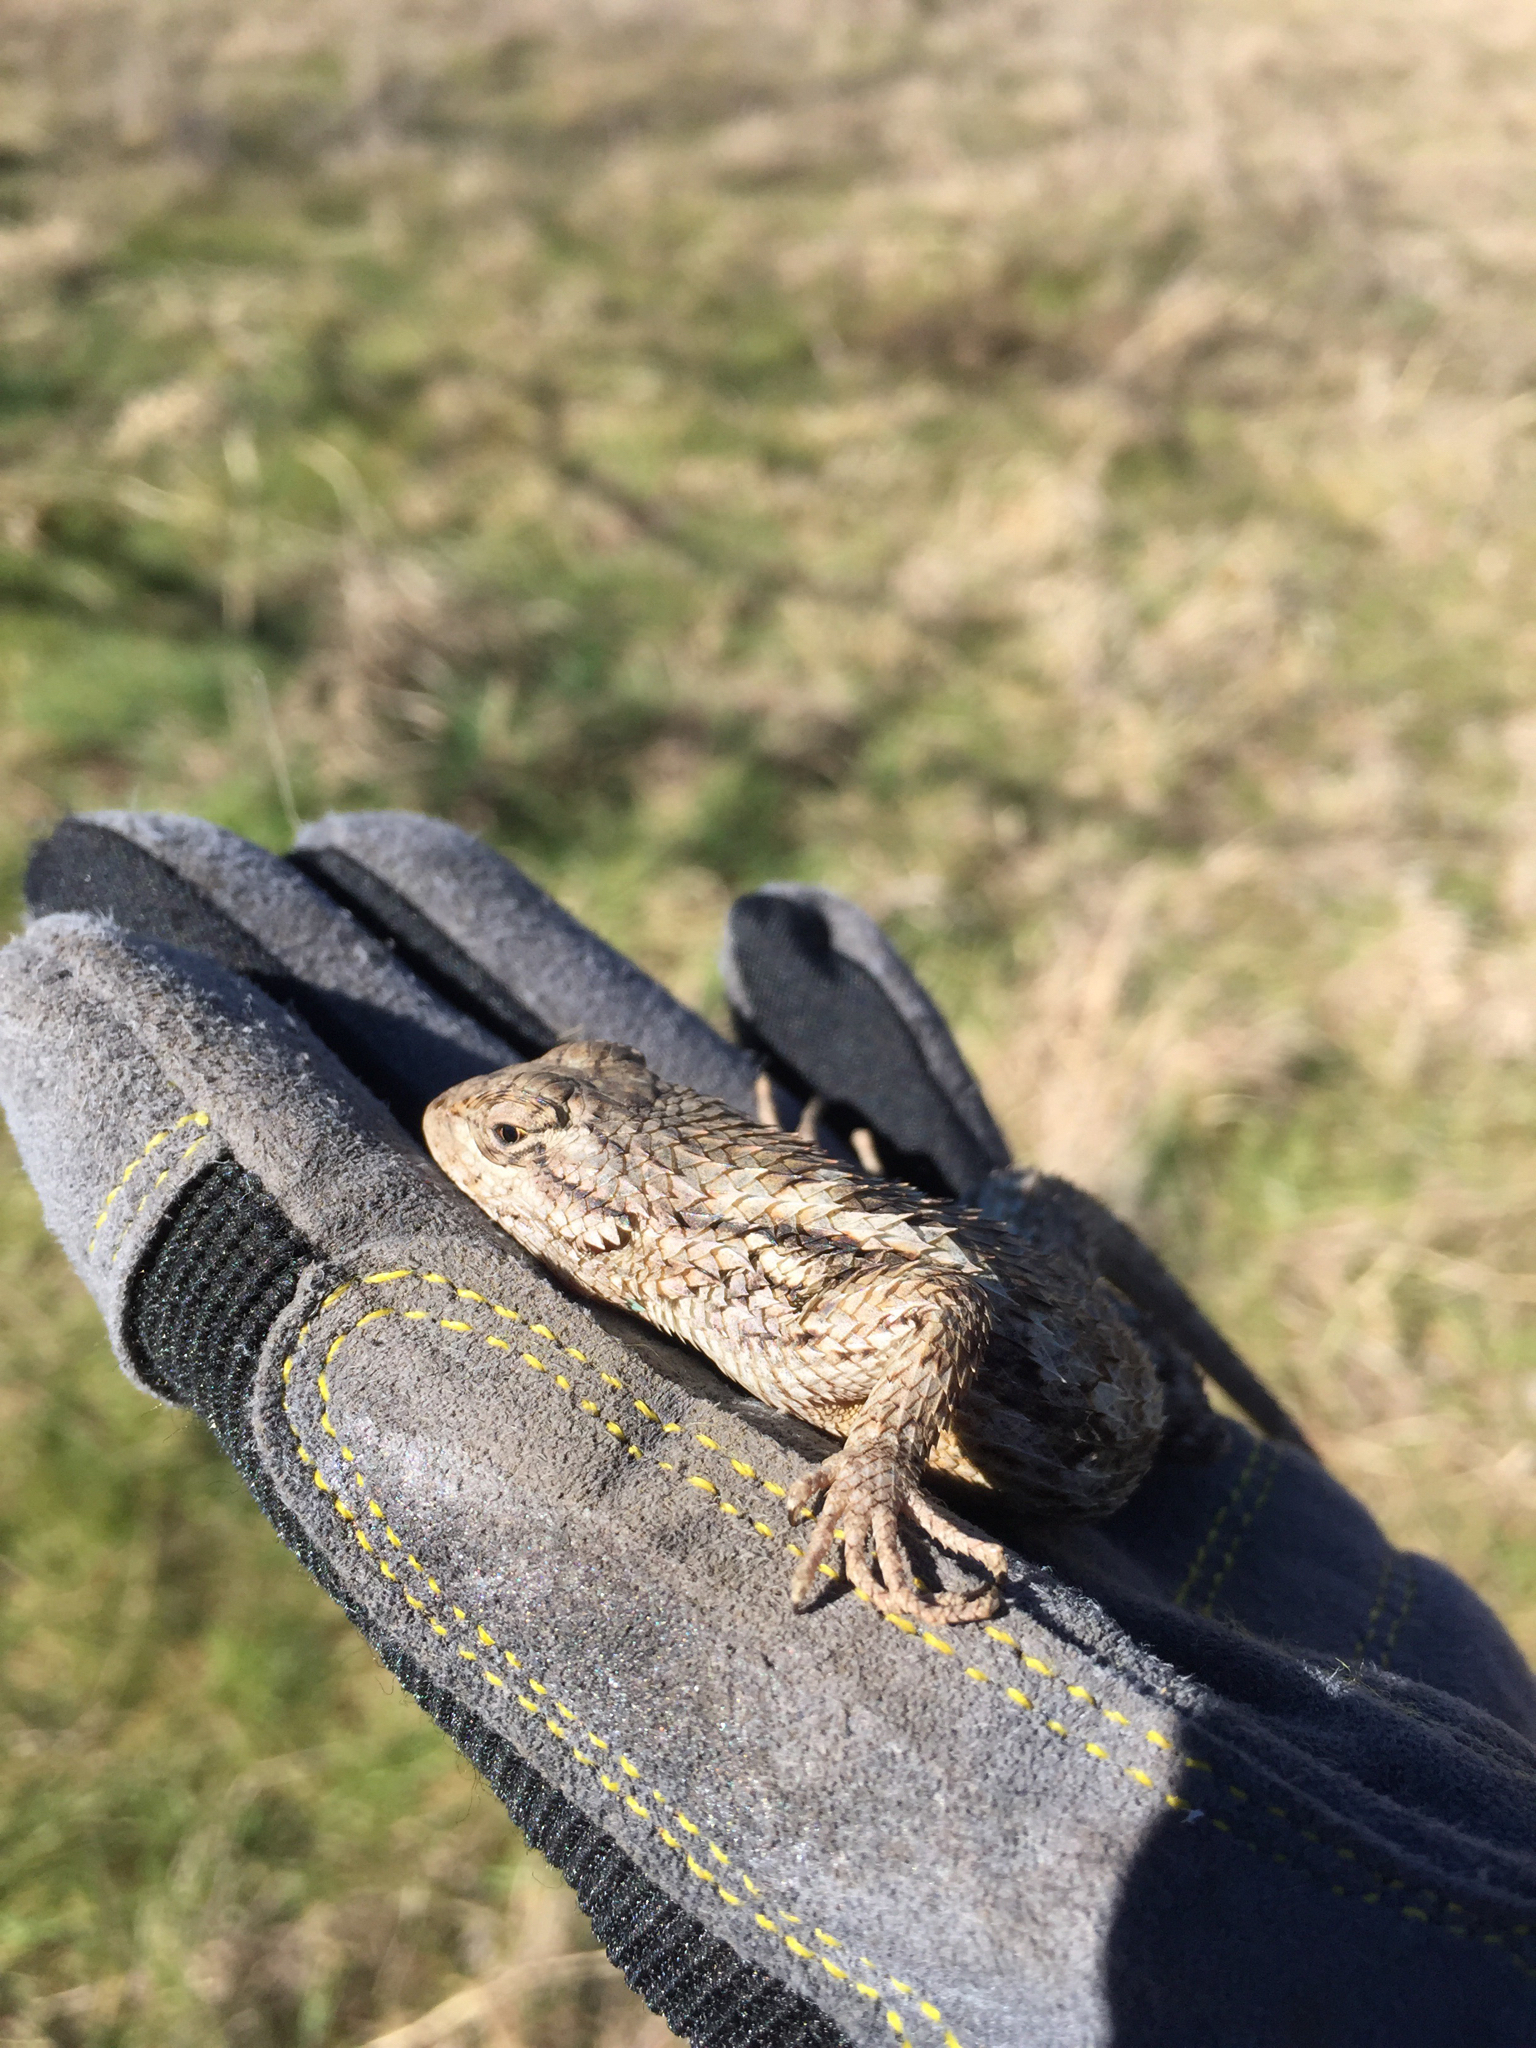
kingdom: Animalia
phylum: Chordata
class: Squamata
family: Phrynosomatidae
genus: Sceloporus
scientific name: Sceloporus olivaceus
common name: Texas spiny lizard
